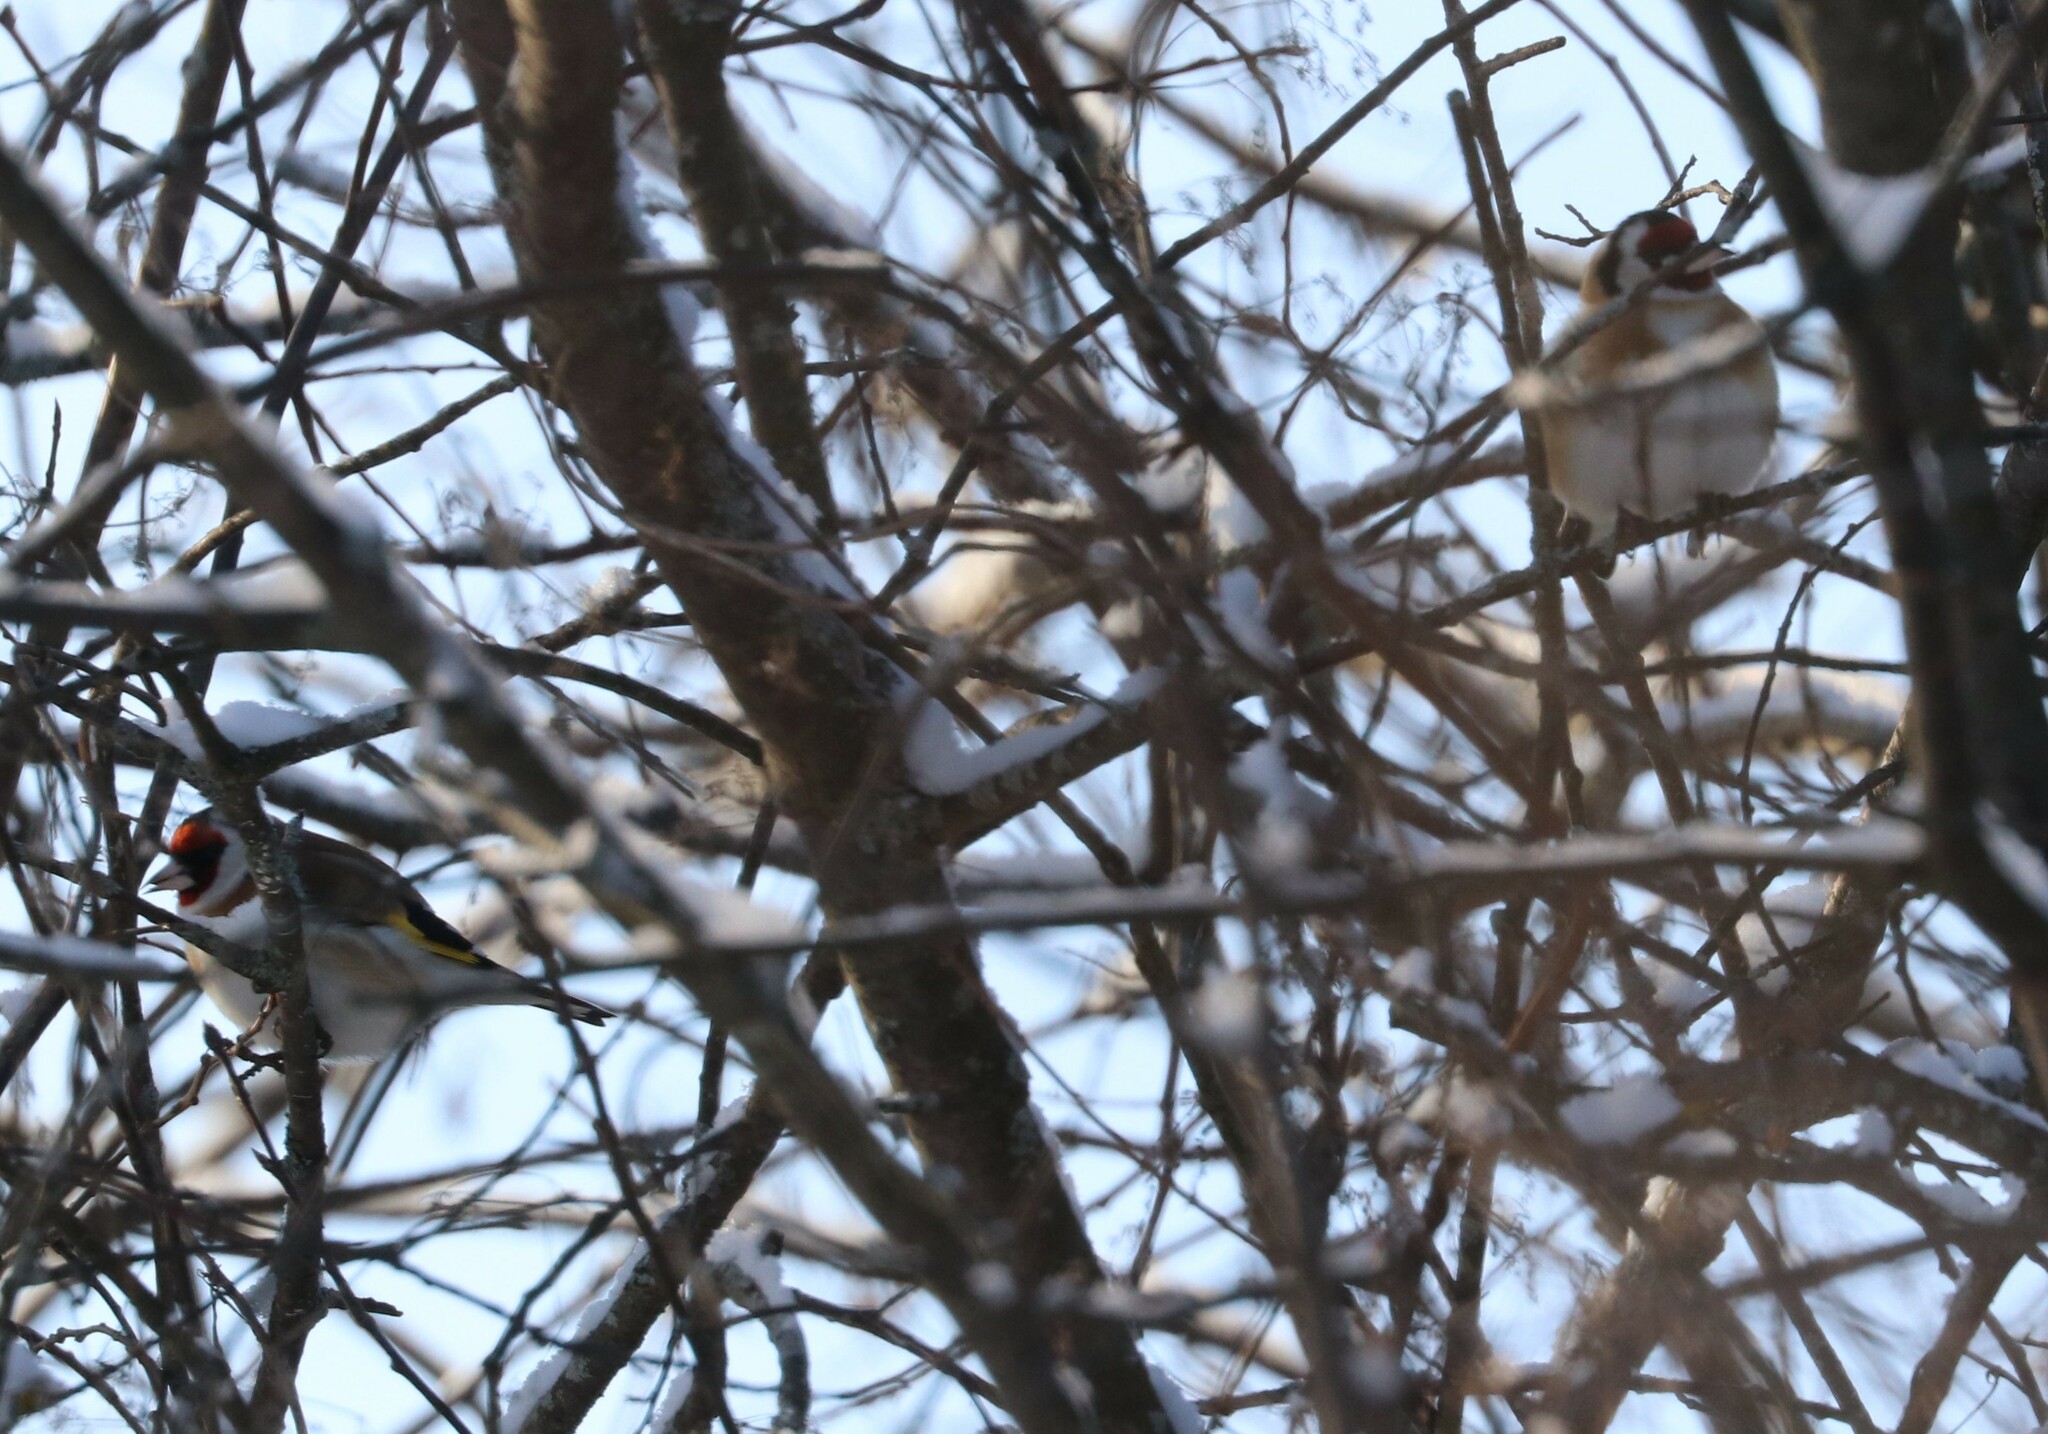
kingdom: Animalia
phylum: Chordata
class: Aves
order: Passeriformes
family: Fringillidae
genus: Carduelis
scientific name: Carduelis carduelis
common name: European goldfinch
